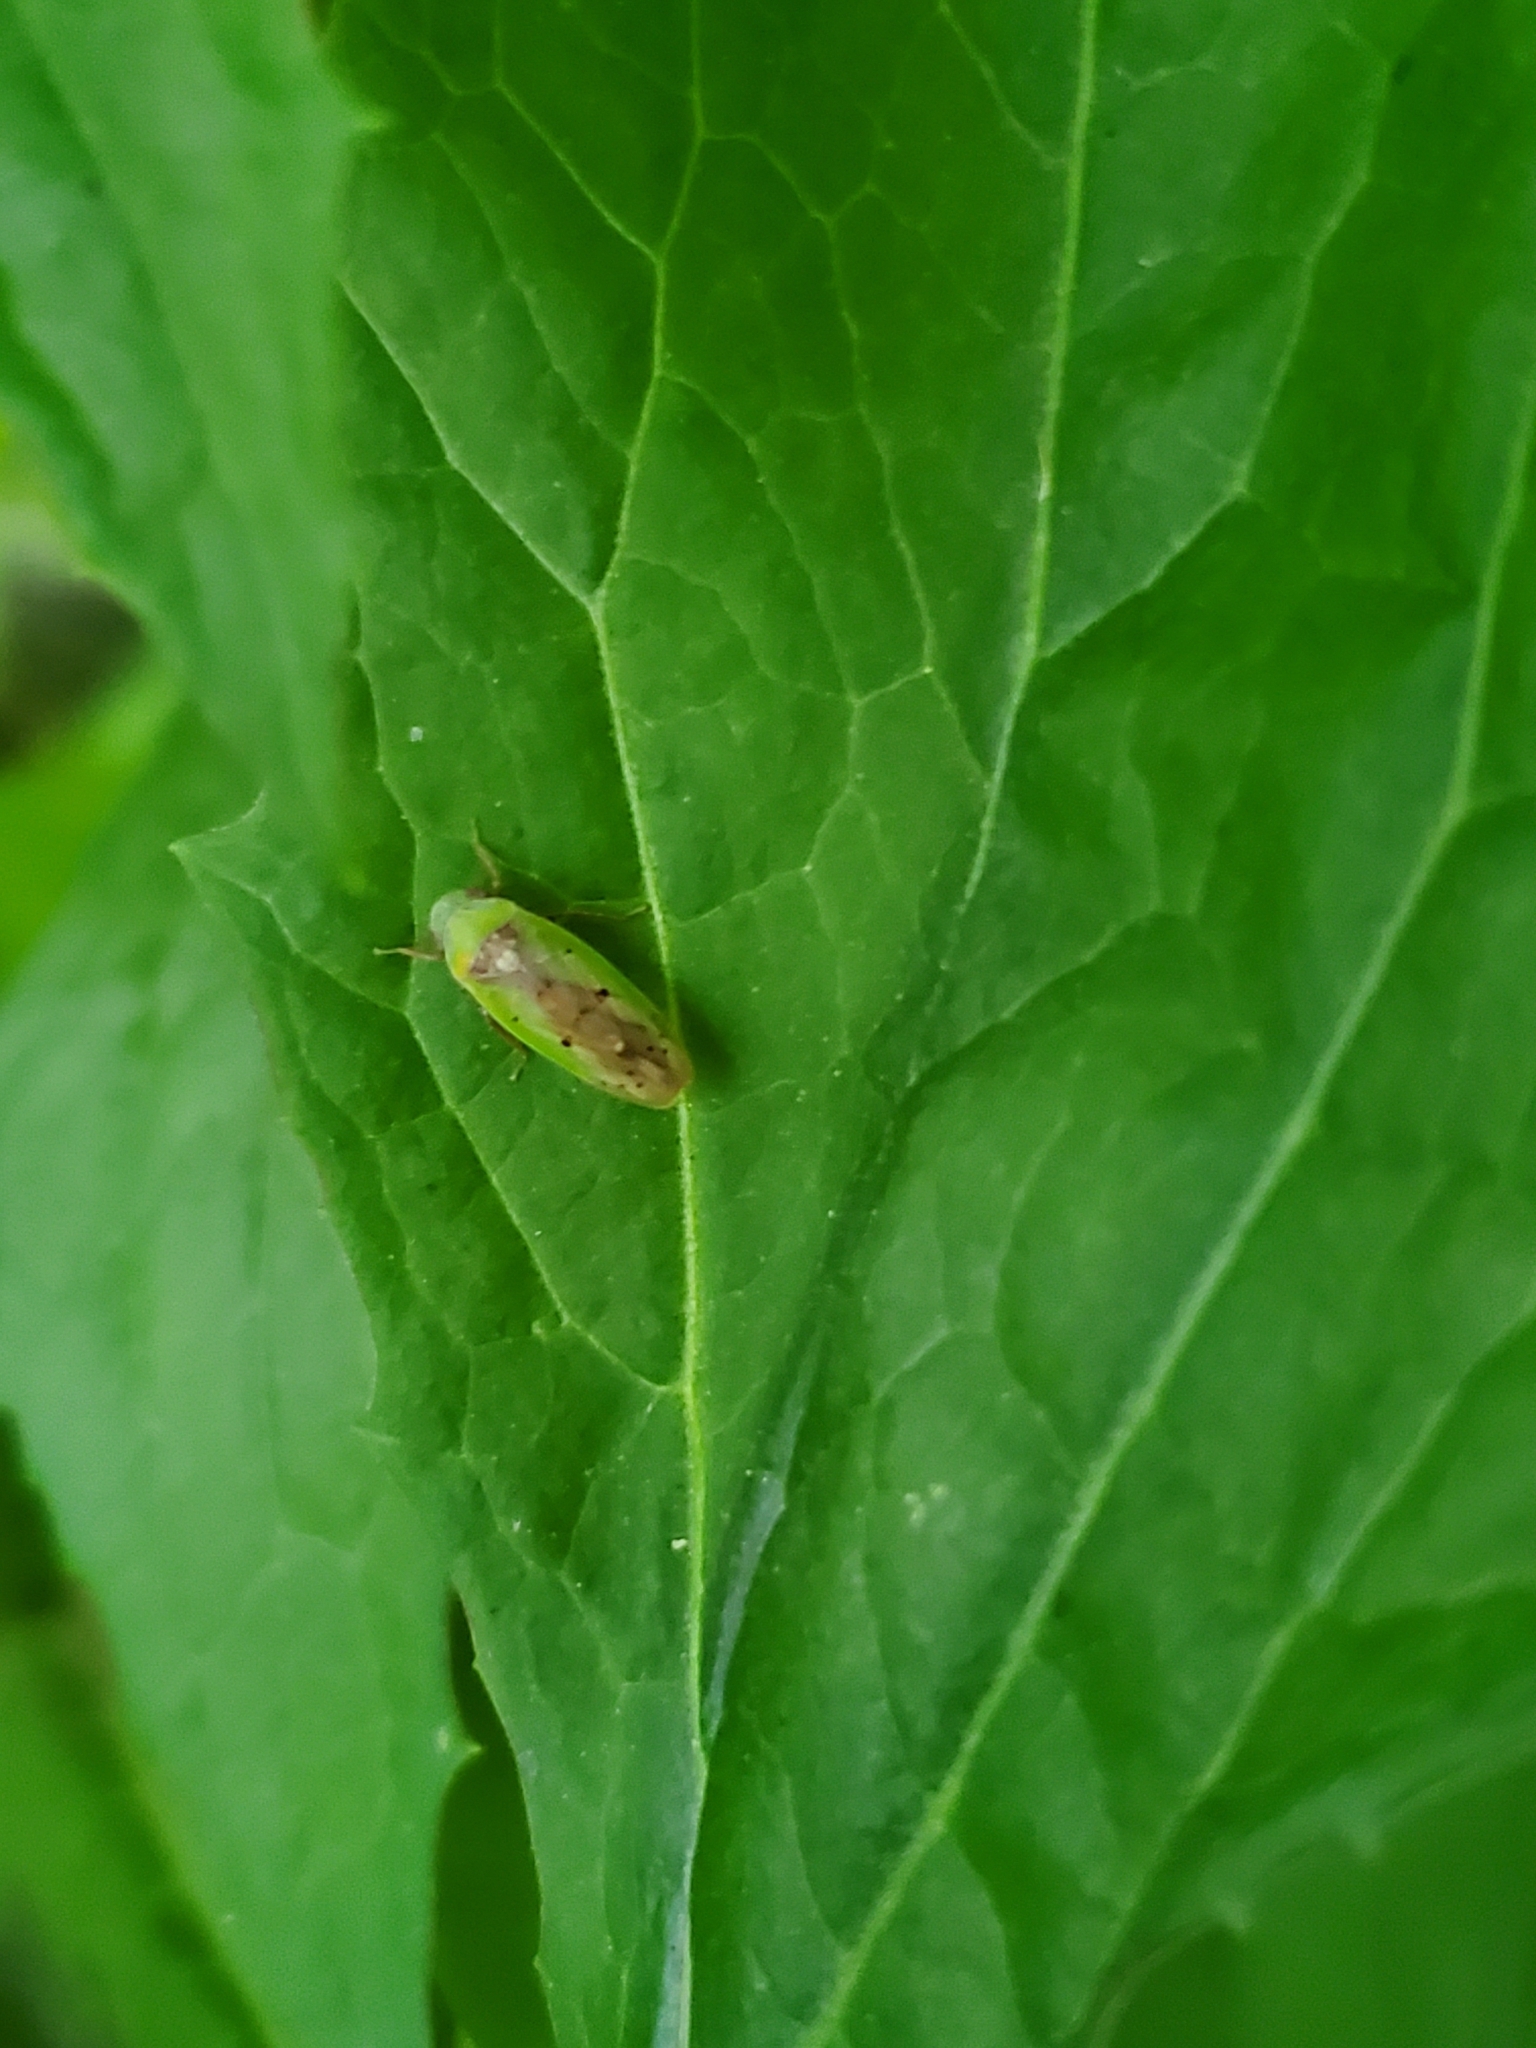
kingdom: Animalia
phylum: Arthropoda
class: Insecta
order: Hemiptera
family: Cicadellidae
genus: Ponana
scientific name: Ponana pectoralis
